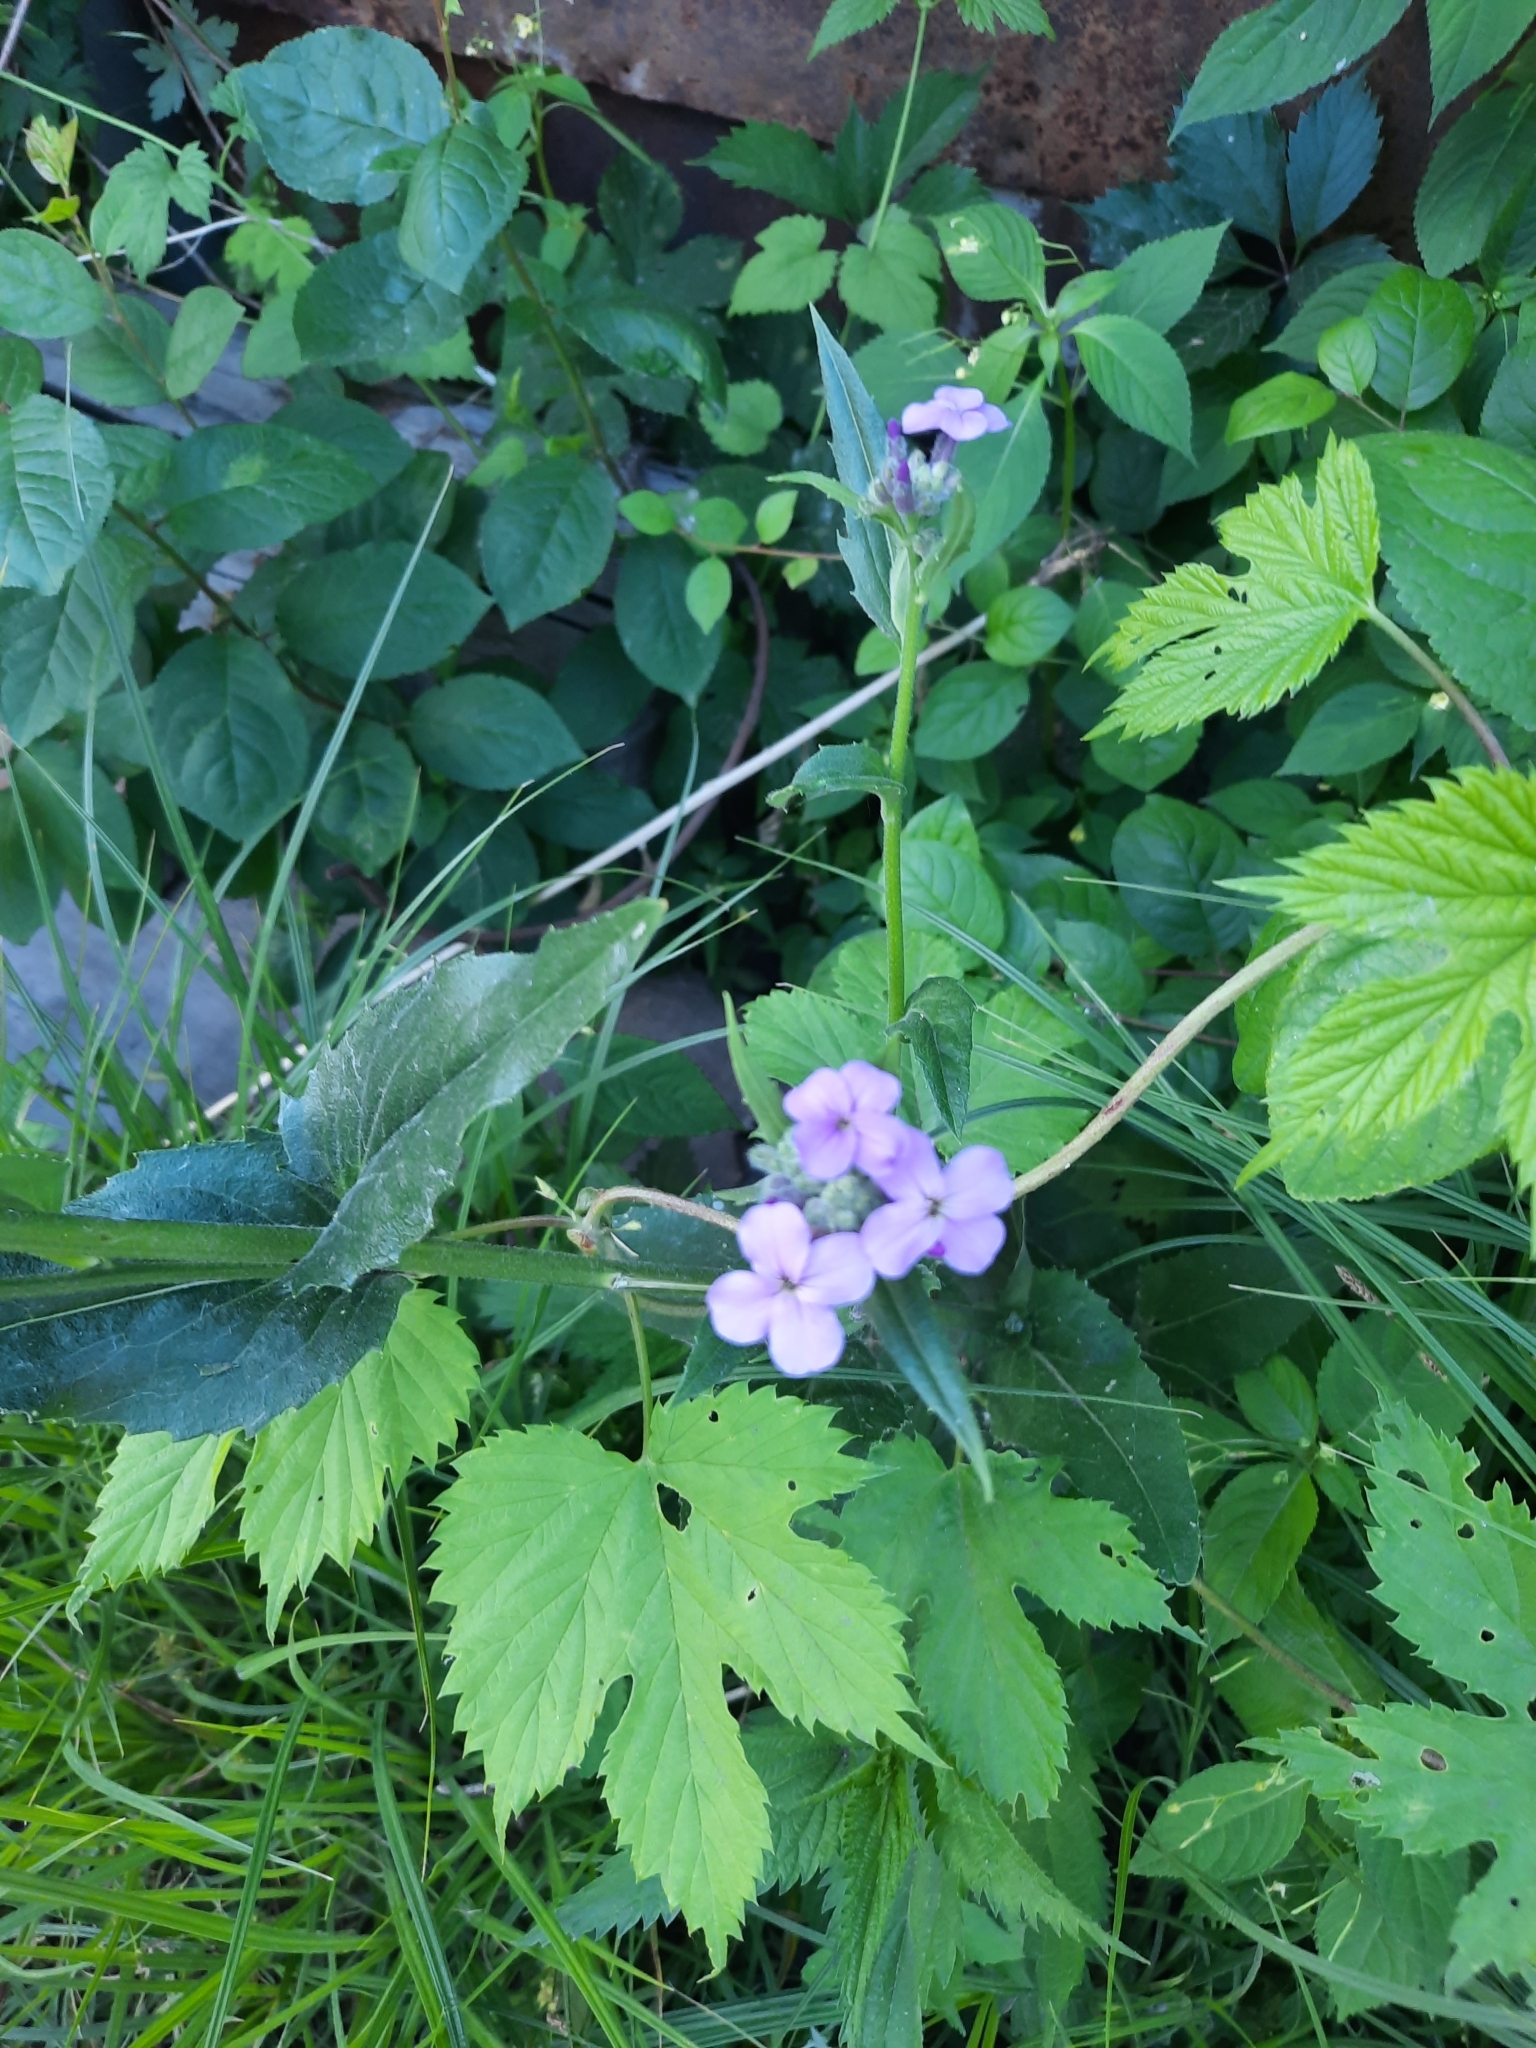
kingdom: Plantae
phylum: Tracheophyta
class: Magnoliopsida
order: Brassicales
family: Brassicaceae
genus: Hesperis
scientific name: Hesperis matronalis
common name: Dame's-violet
